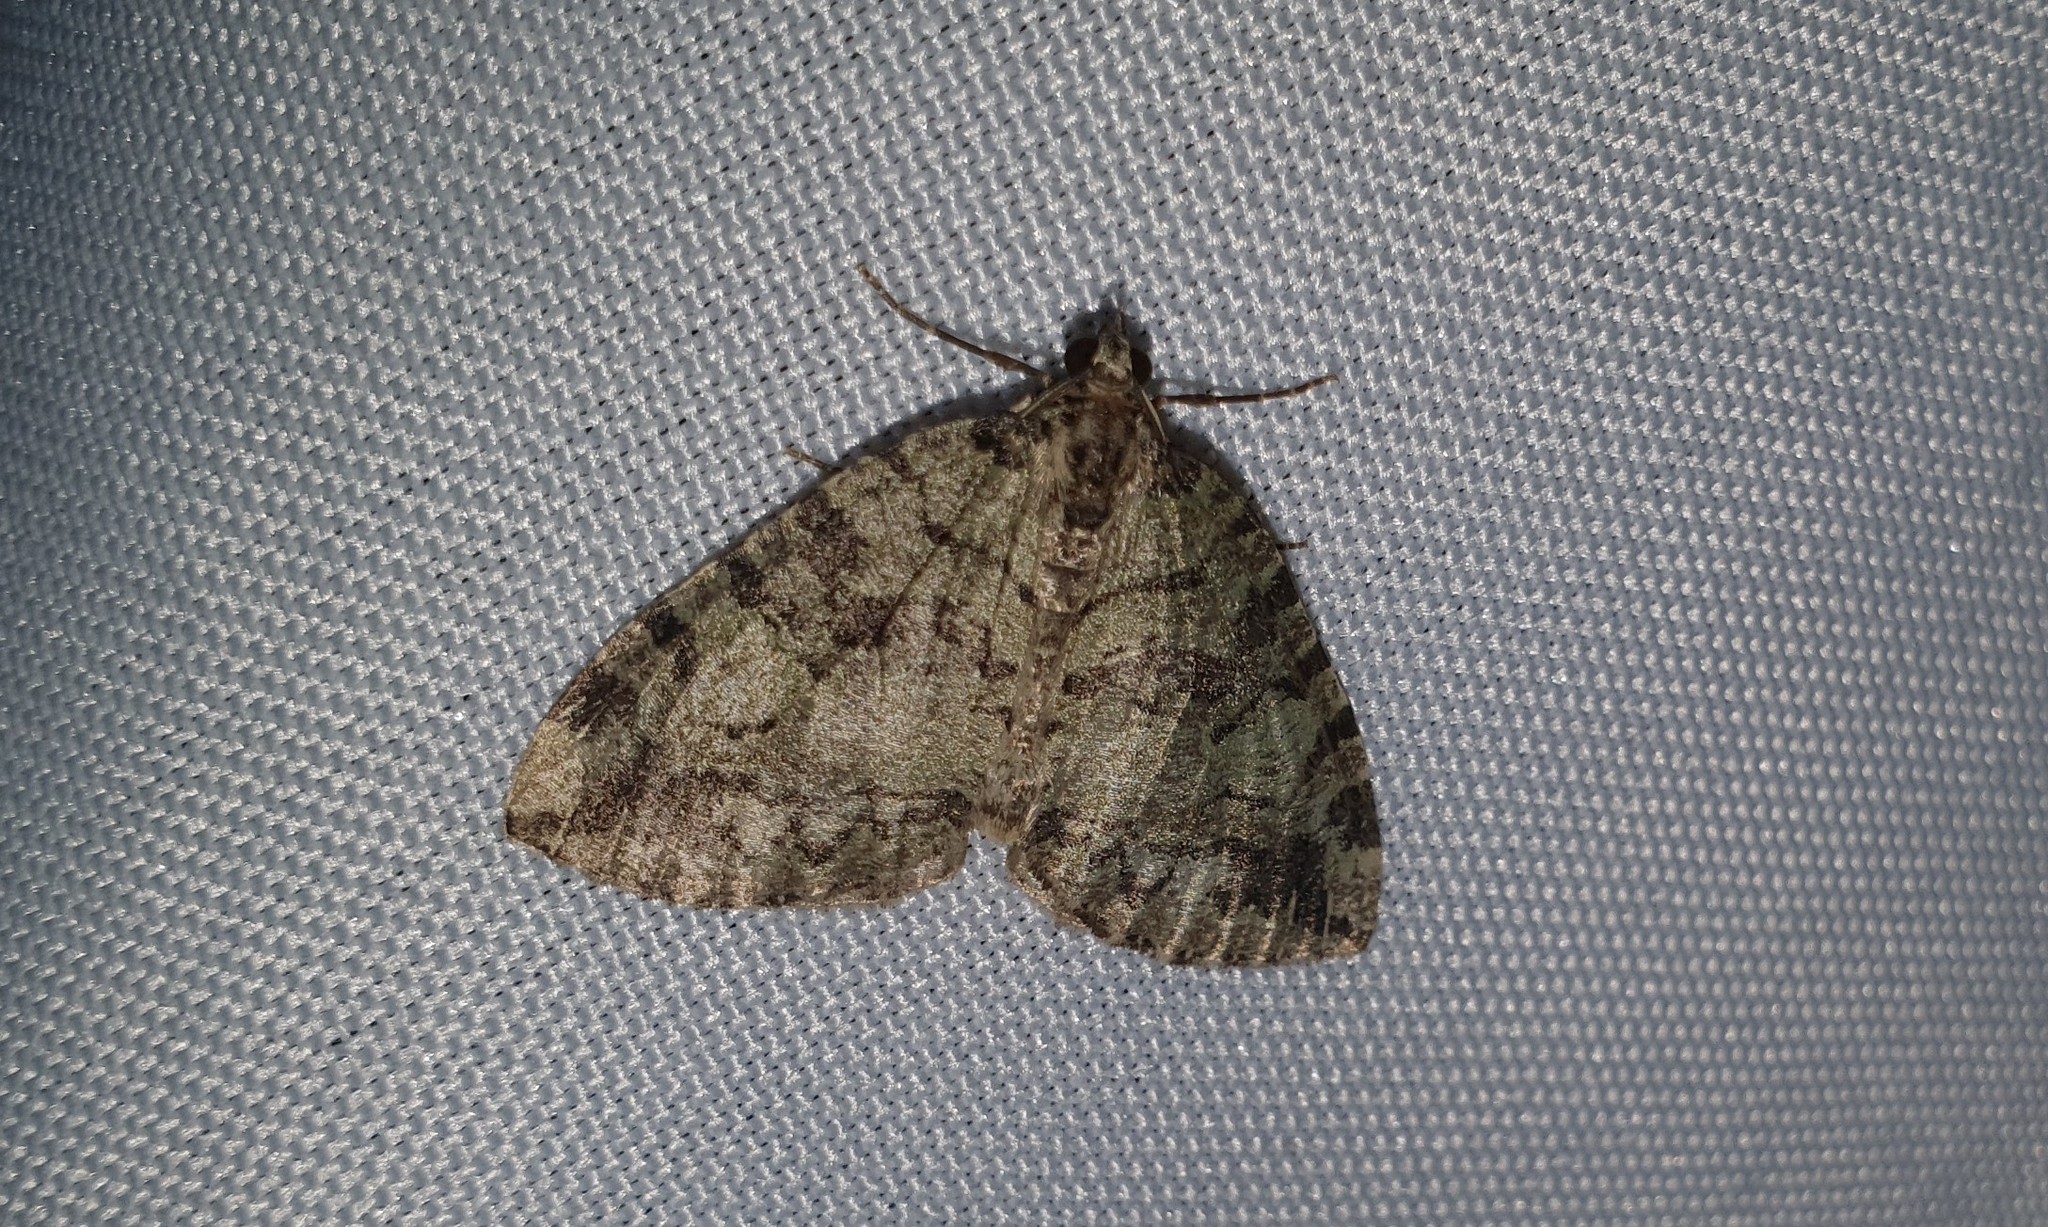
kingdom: Animalia
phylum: Arthropoda
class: Insecta
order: Lepidoptera
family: Geometridae
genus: Hydriomena
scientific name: Hydriomena furcata
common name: July highflyer
